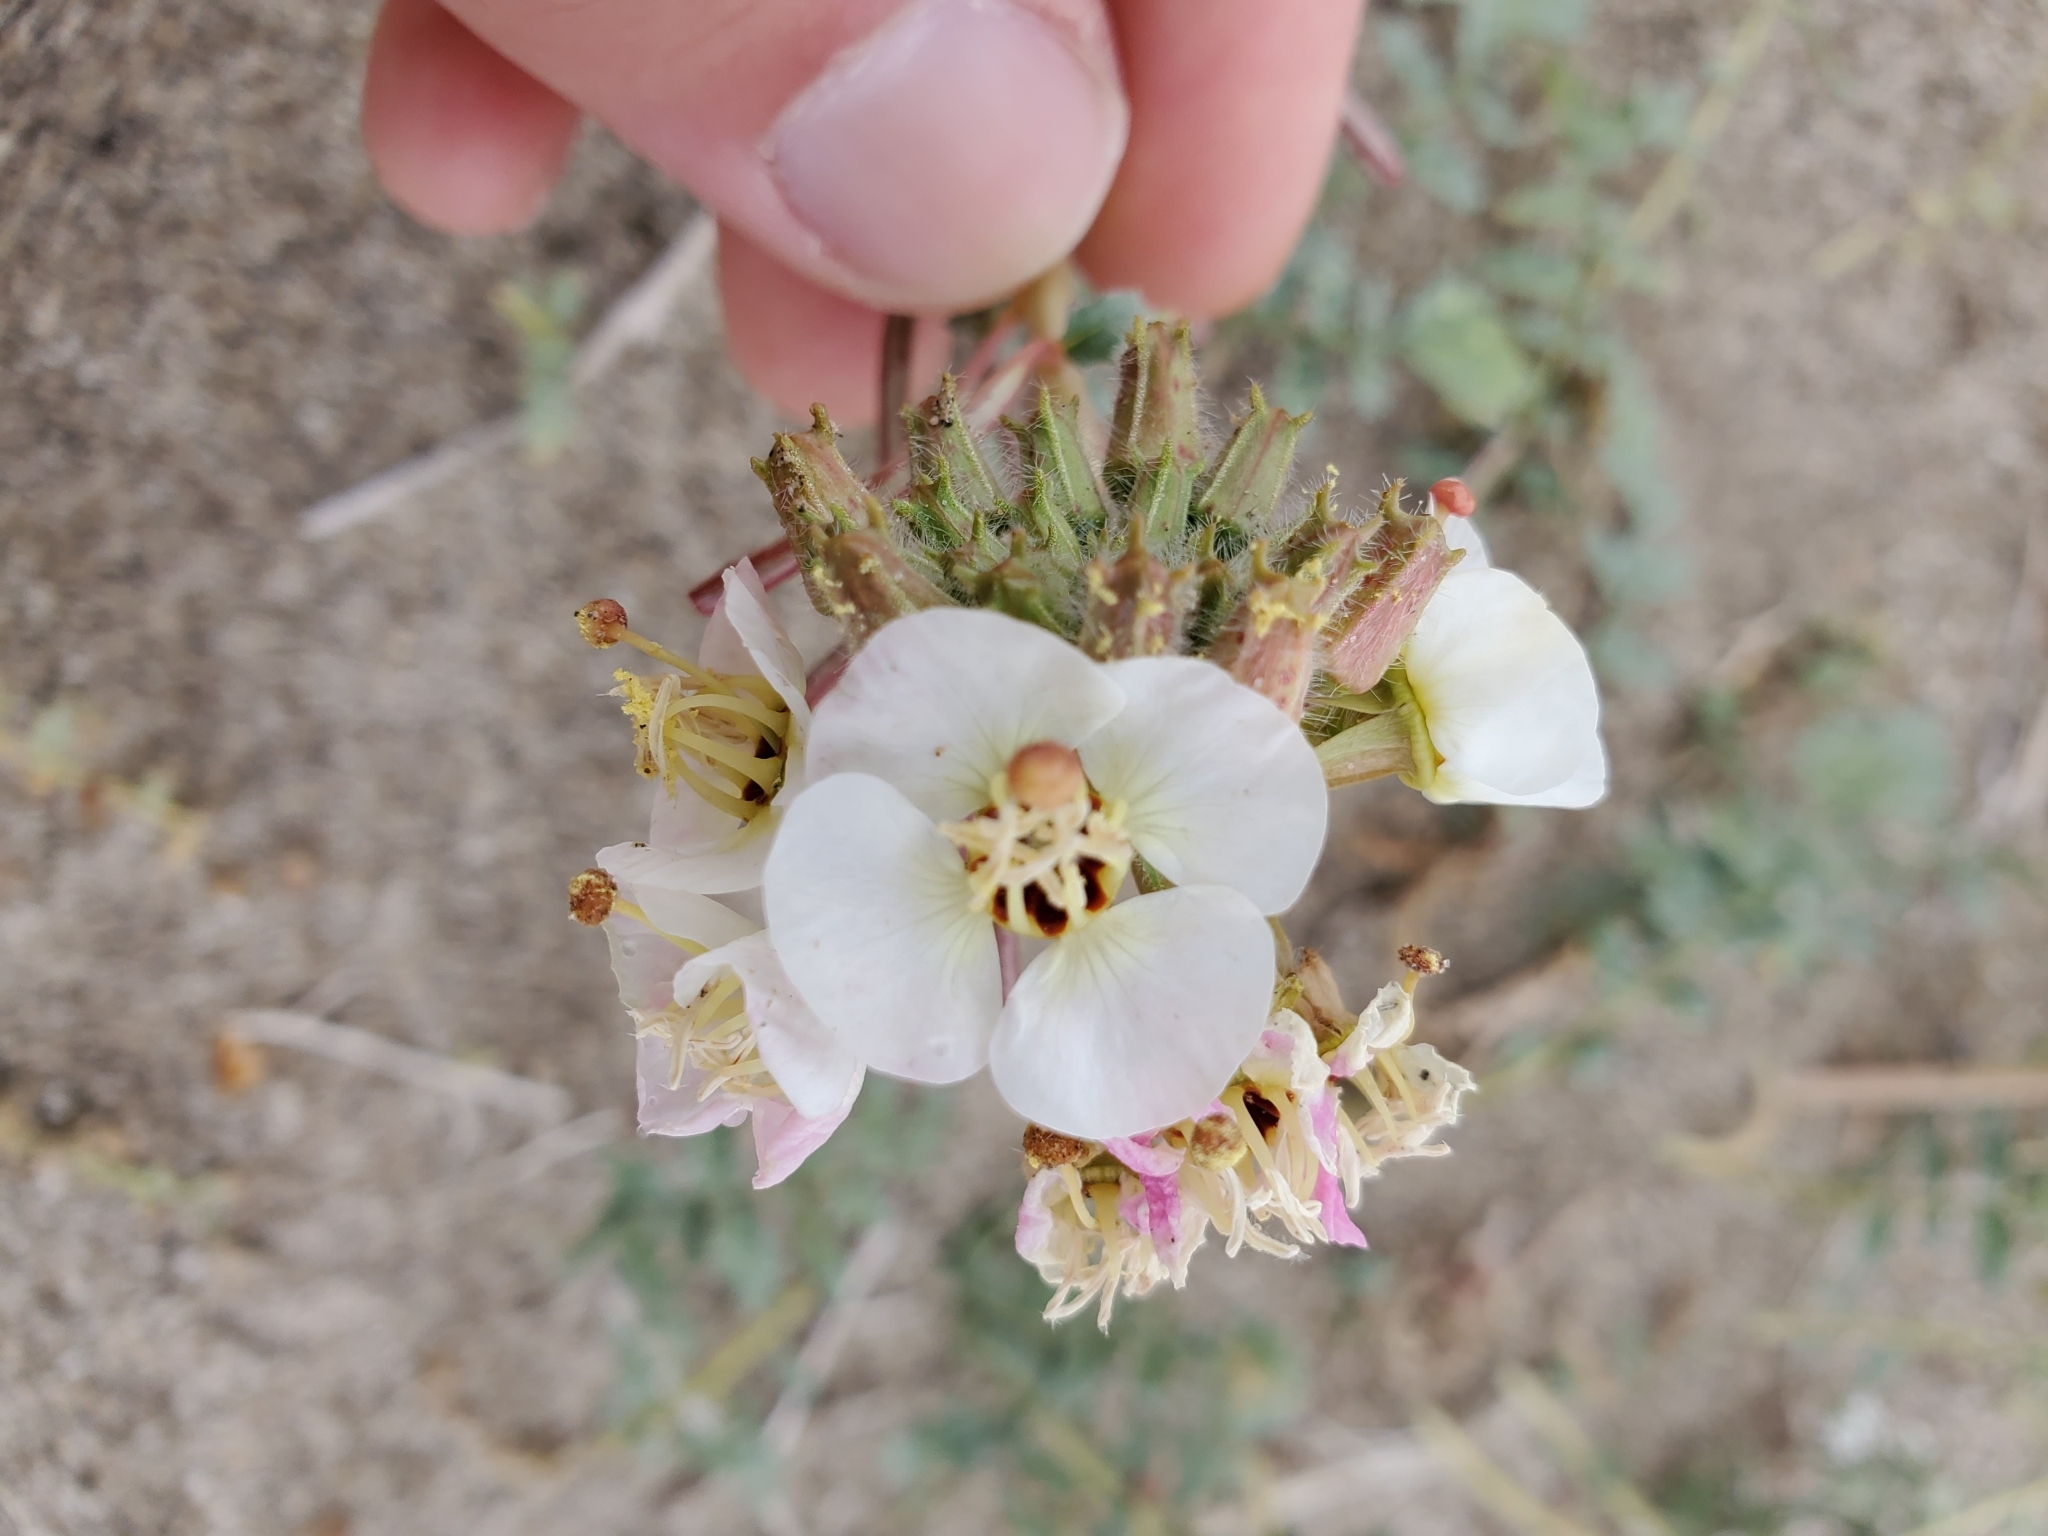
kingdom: Plantae
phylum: Tracheophyta
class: Magnoliopsida
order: Myrtales
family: Onagraceae
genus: Chylismia
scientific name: Chylismia claviformis
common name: Browneyes
